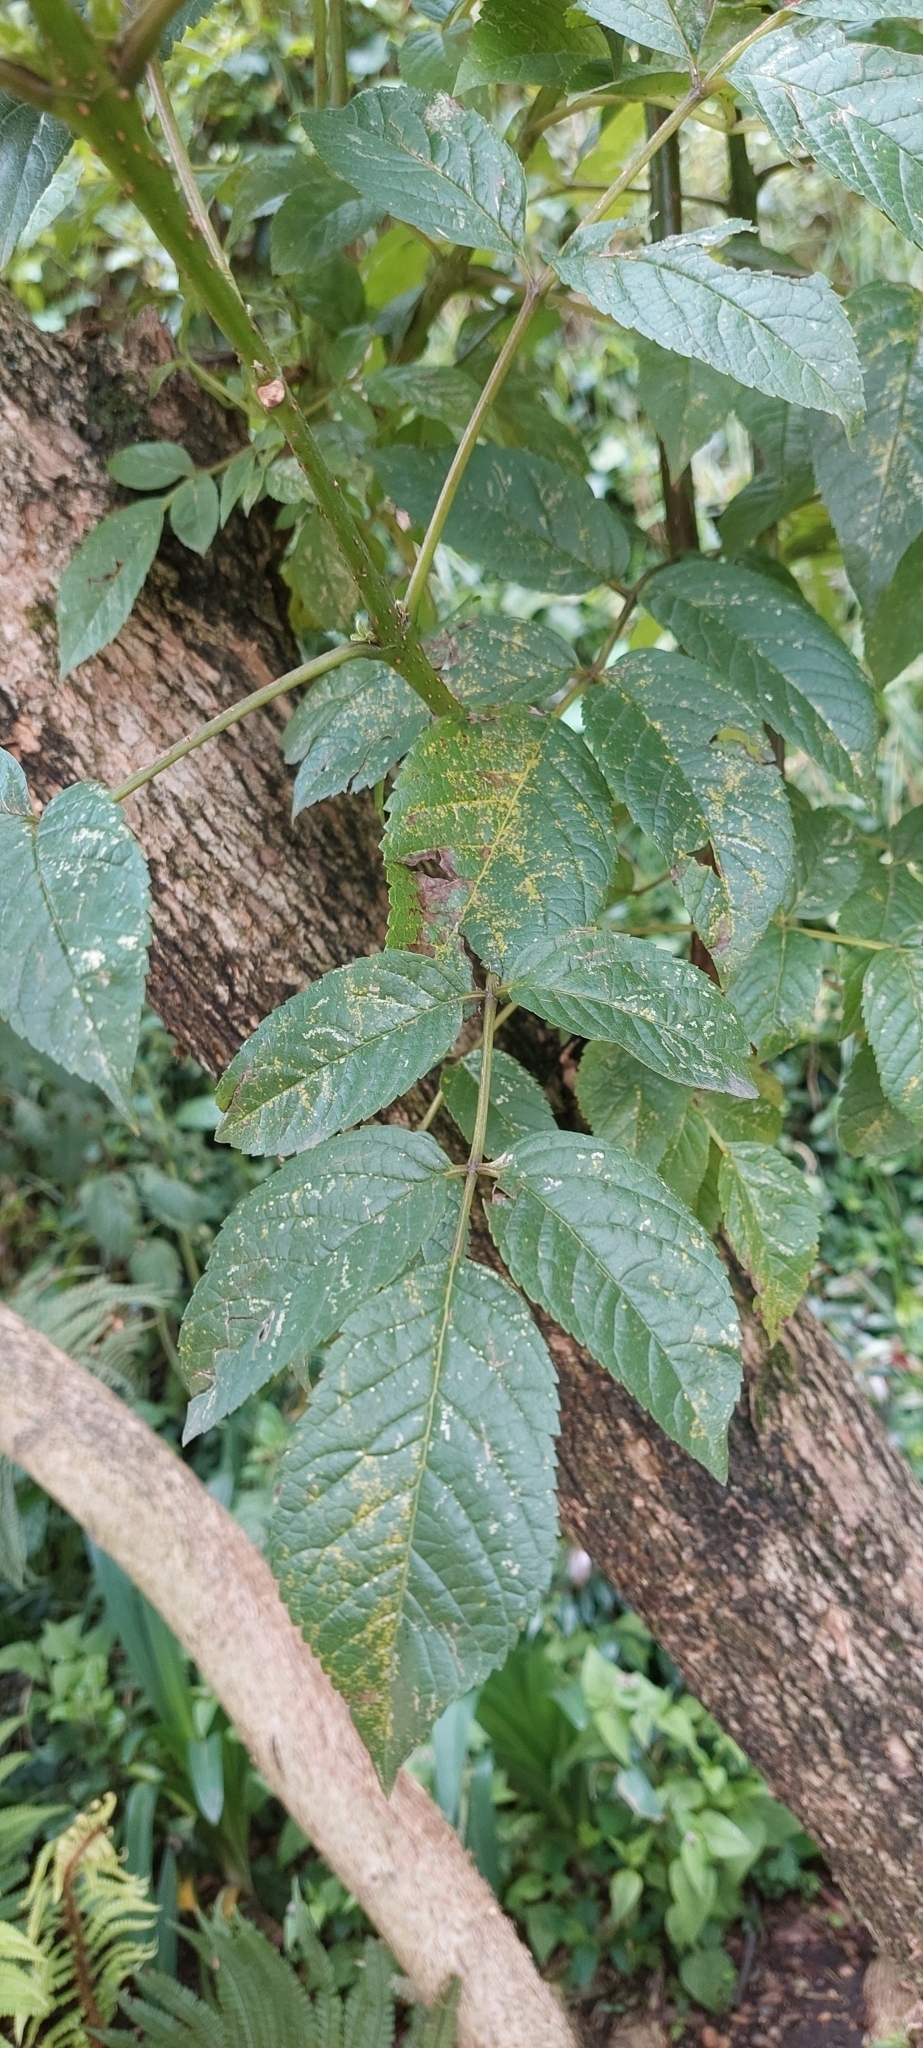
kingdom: Plantae
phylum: Tracheophyta
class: Magnoliopsida
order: Lamiales
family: Bignoniaceae
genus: Tecoma
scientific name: Tecoma stans
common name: Yellow trumpetbush
